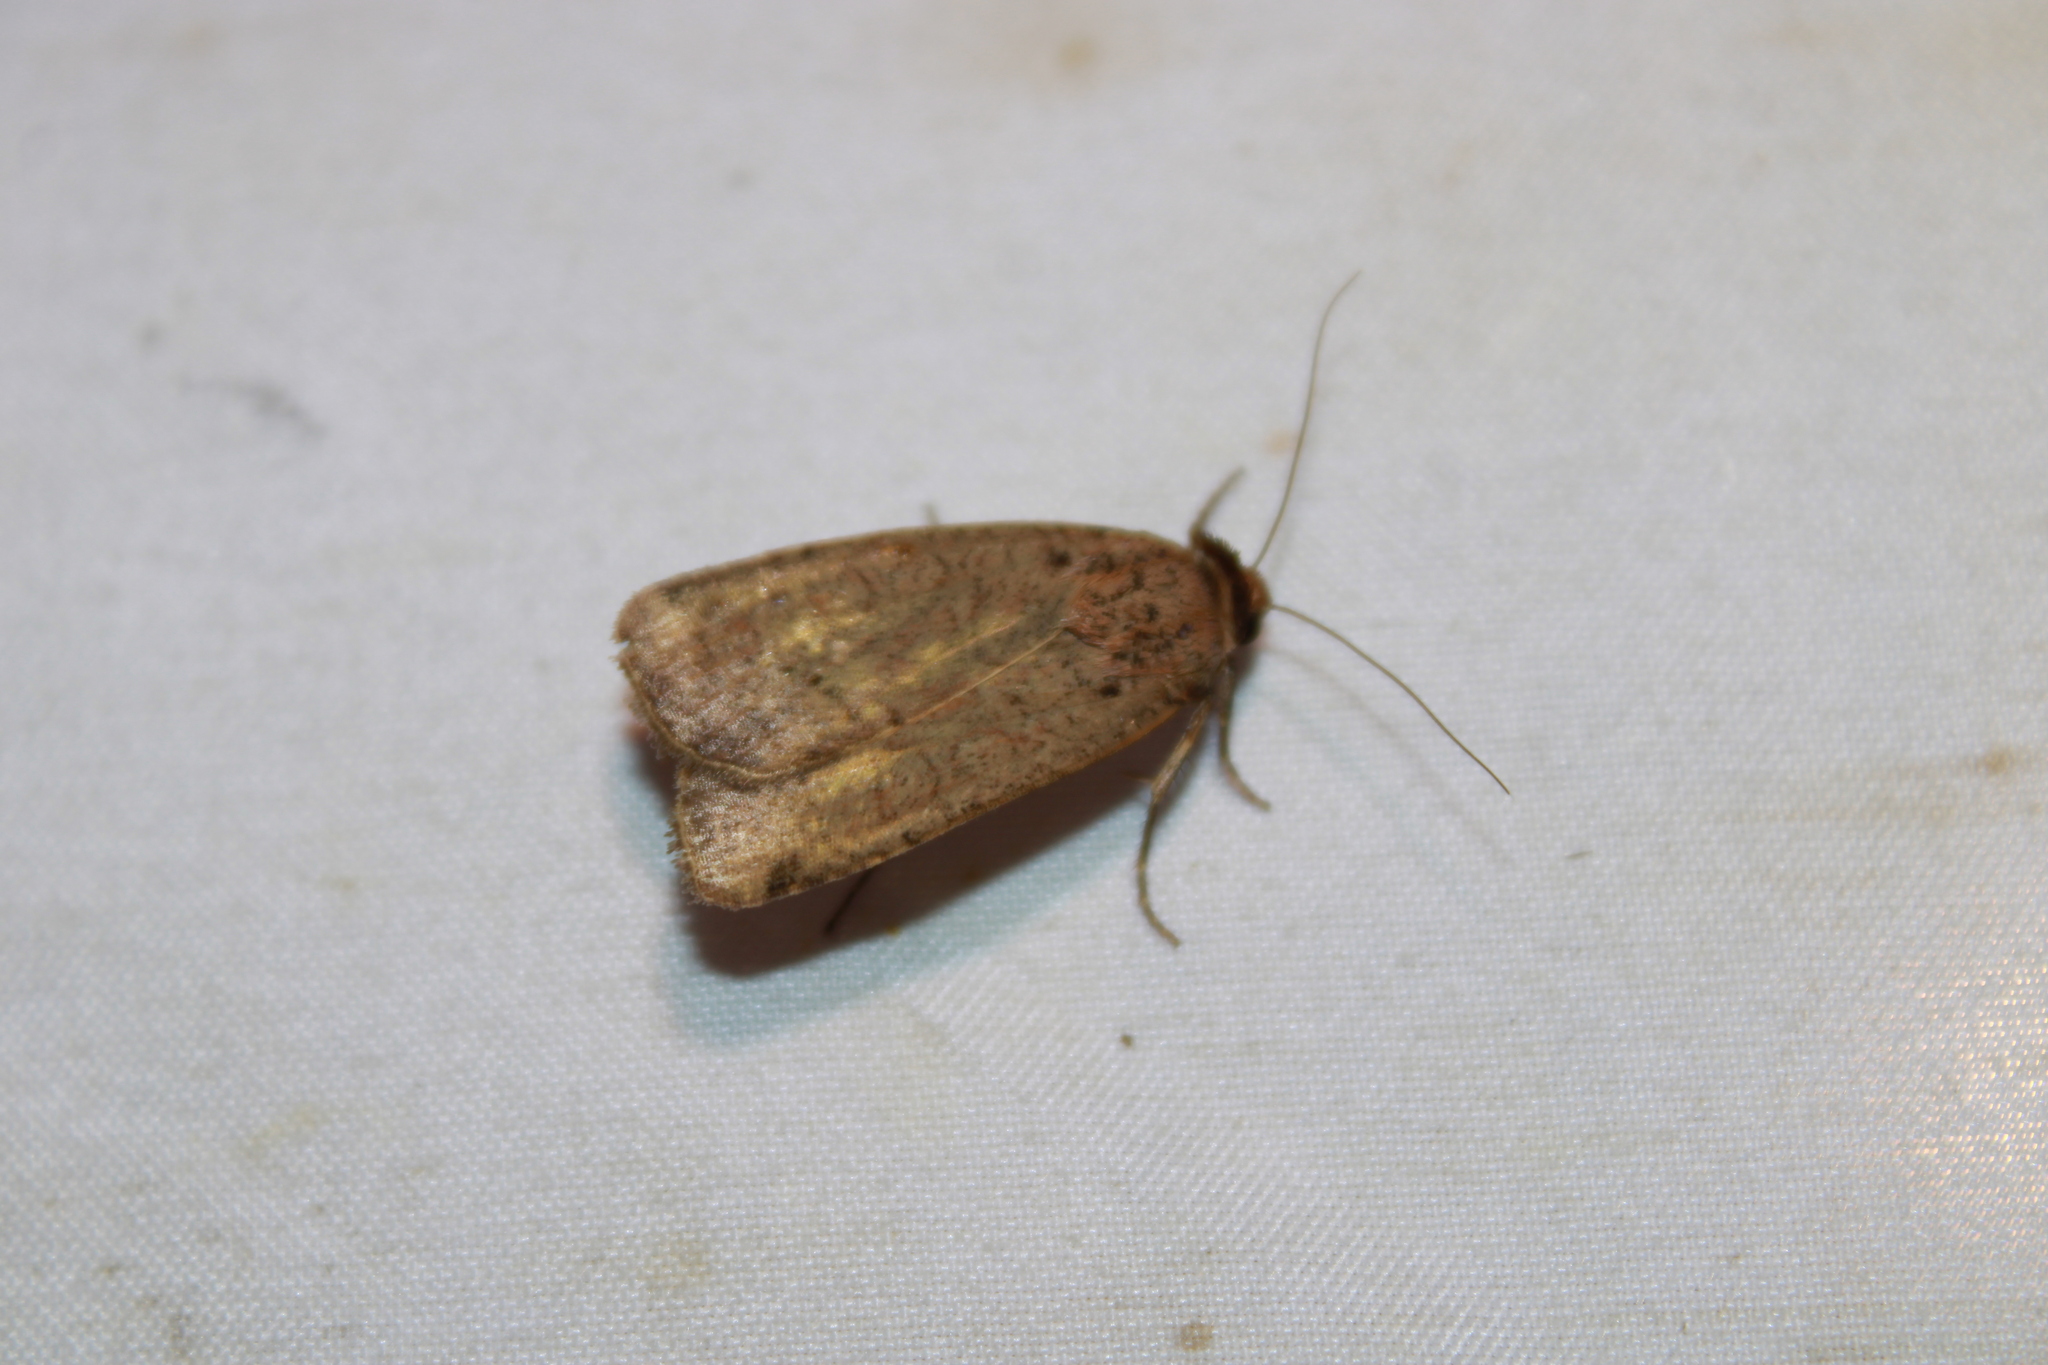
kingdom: Animalia
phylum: Arthropoda
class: Insecta
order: Lepidoptera
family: Noctuidae
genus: Protolampra
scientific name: Protolampra brunneicollis
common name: Brown-collared dart
